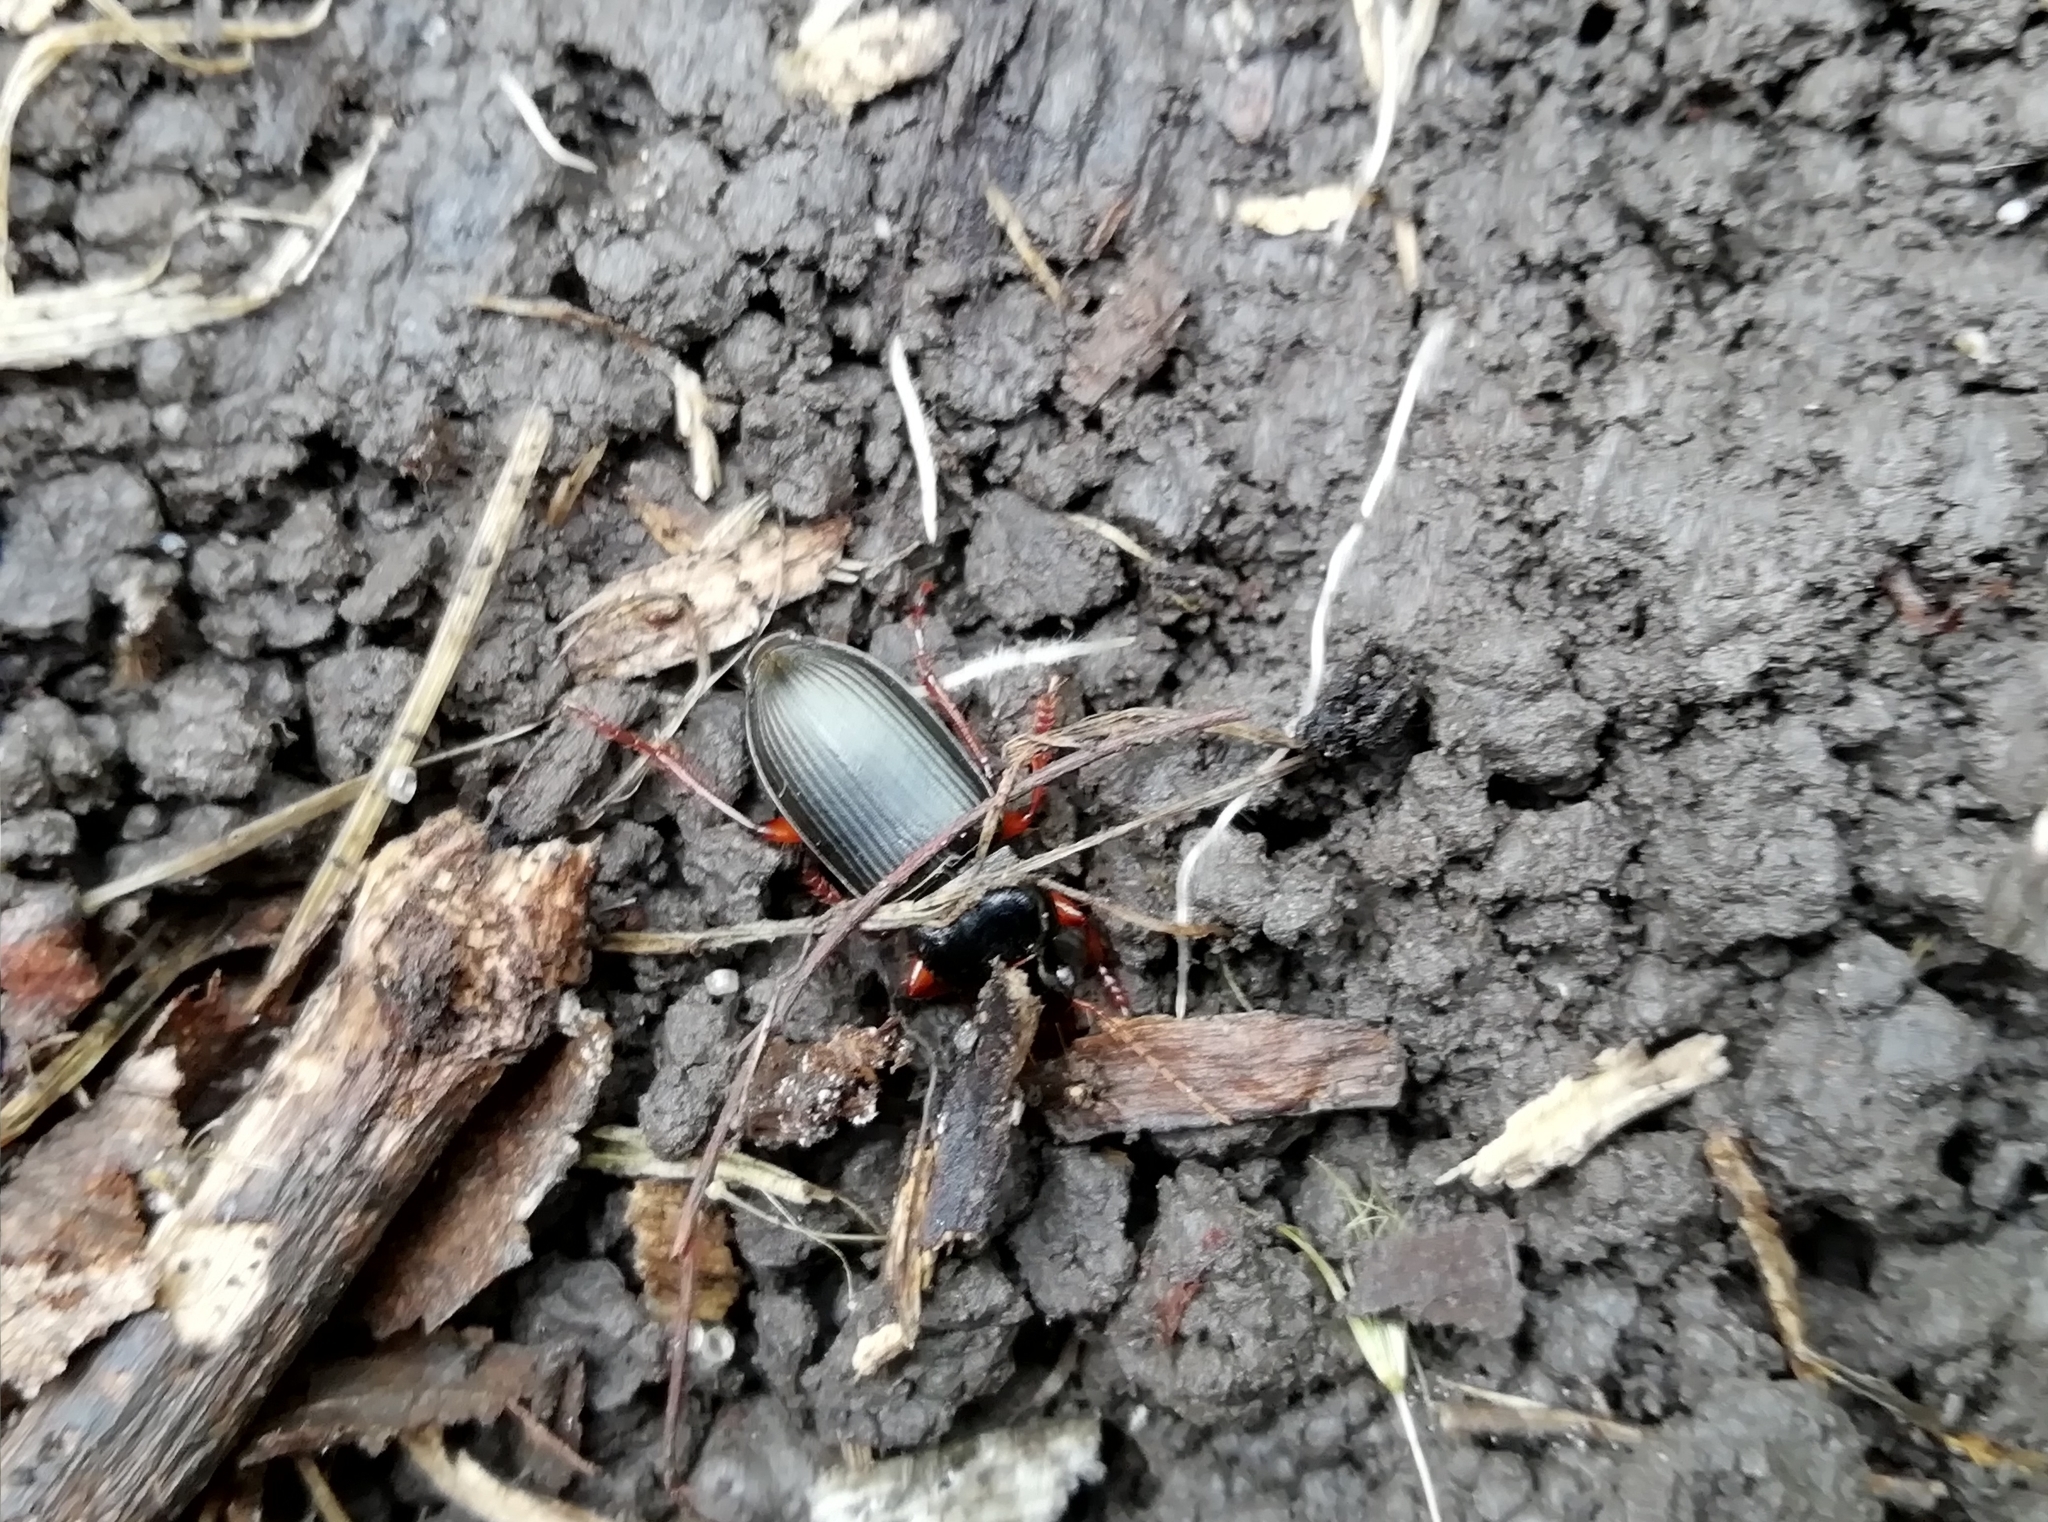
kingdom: Animalia
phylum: Arthropoda
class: Insecta
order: Coleoptera
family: Carabidae
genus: Harpalus
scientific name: Harpalus rufipes
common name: Strawberry harp ground beetle
